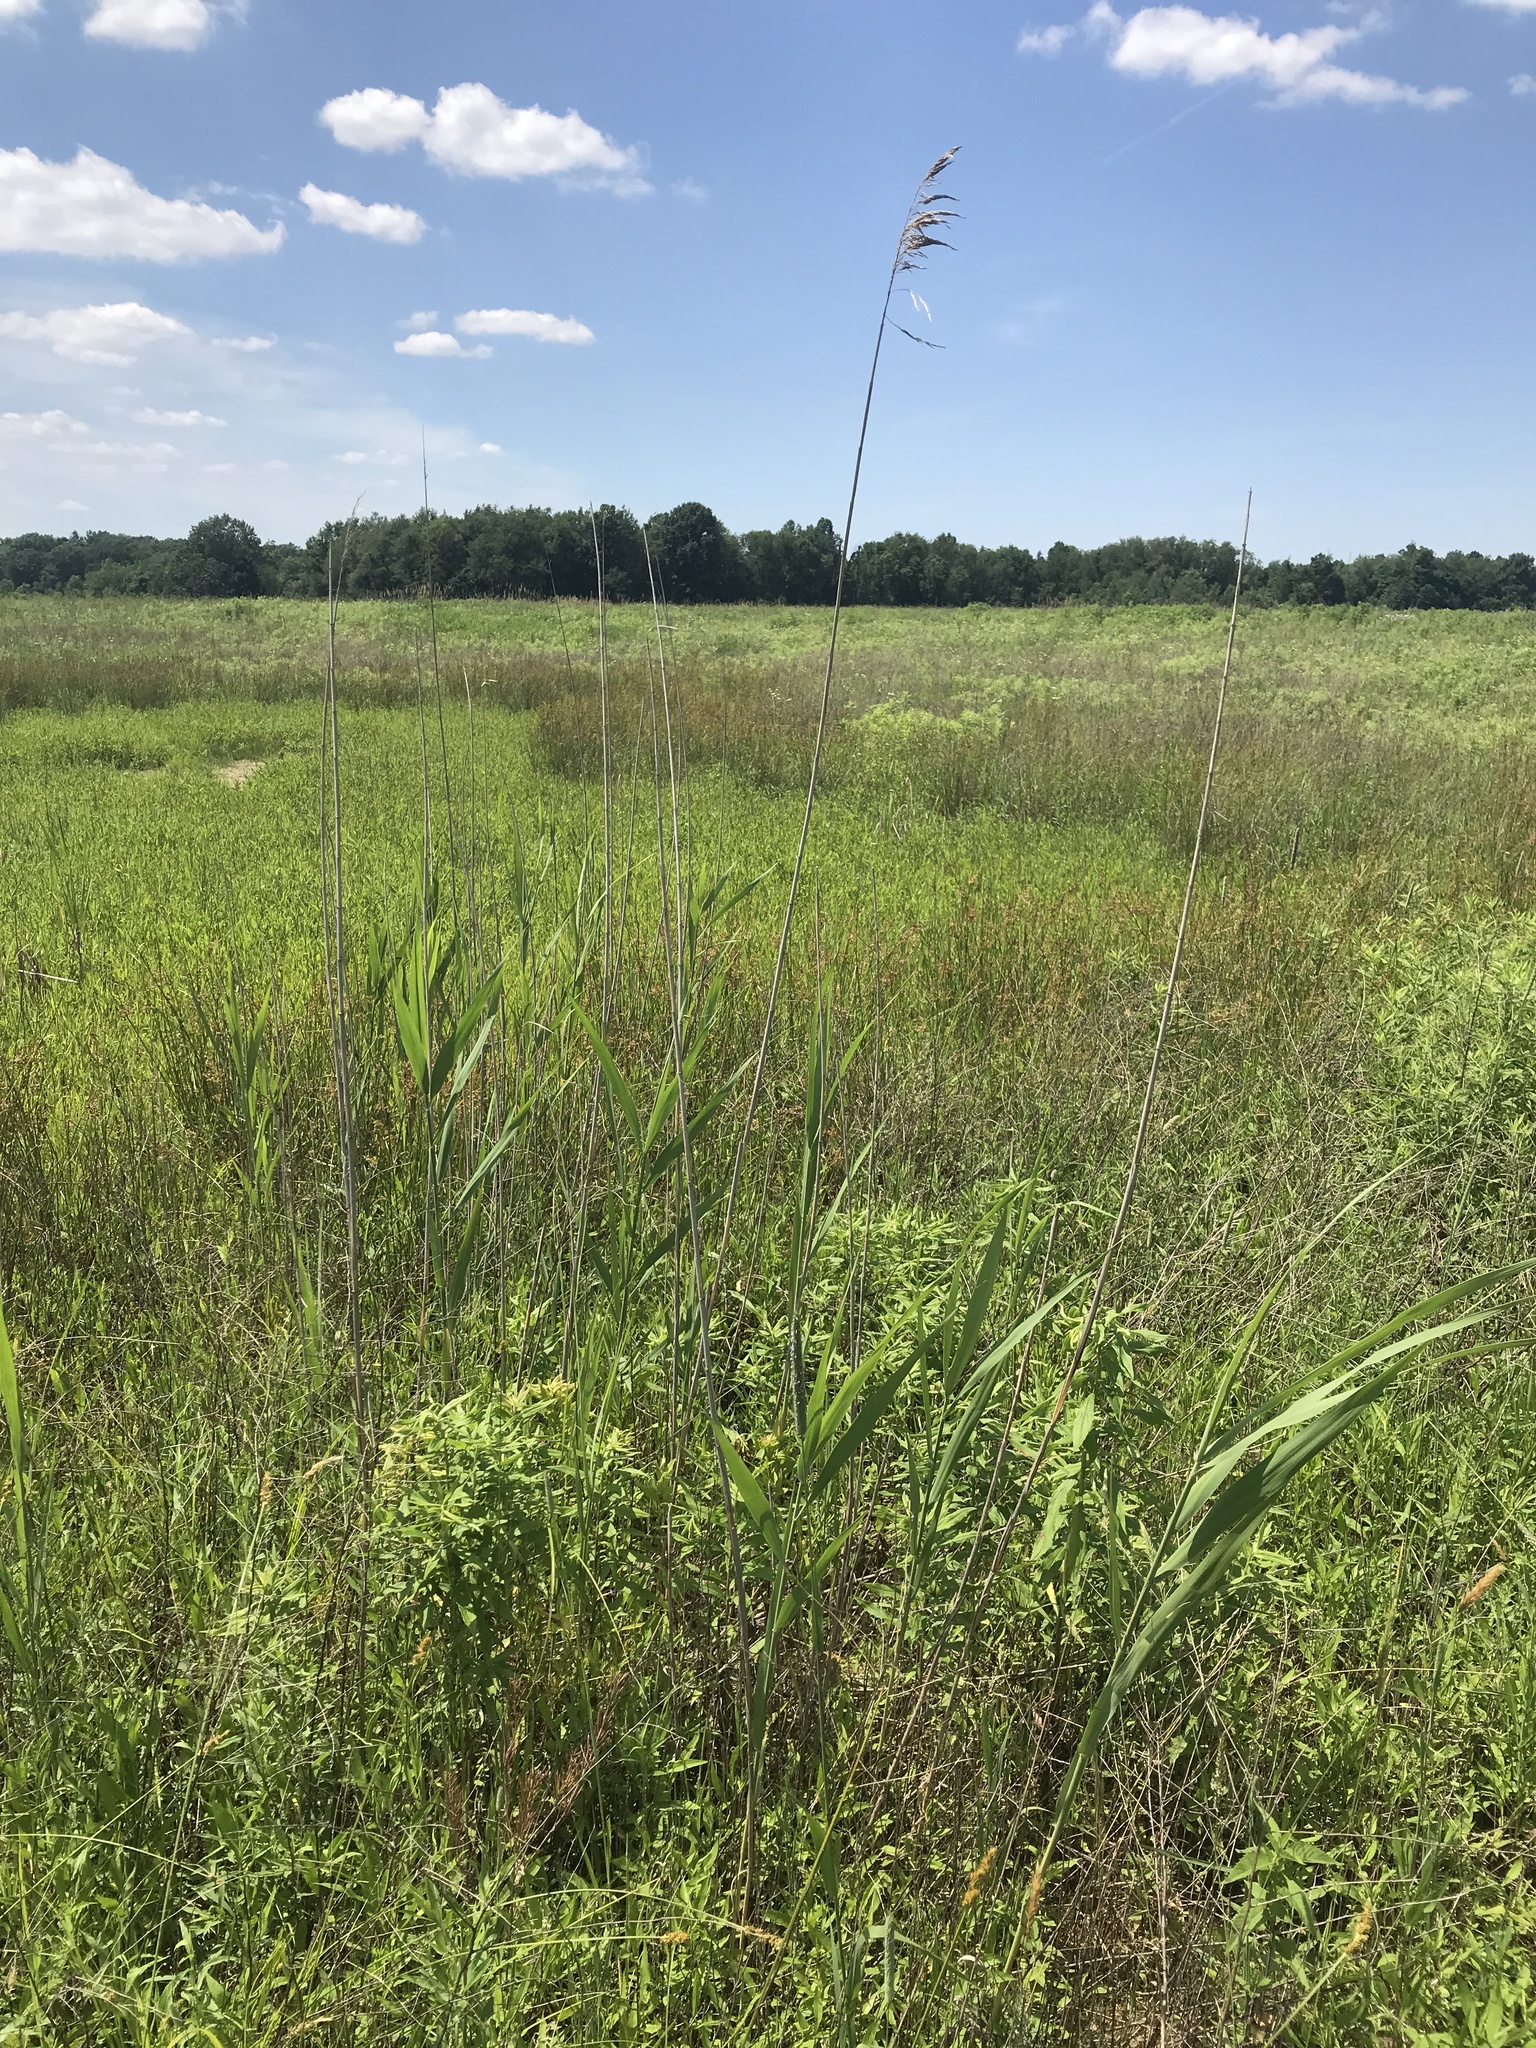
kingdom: Plantae
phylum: Tracheophyta
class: Liliopsida
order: Poales
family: Poaceae
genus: Phragmites
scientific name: Phragmites australis
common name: Common reed
